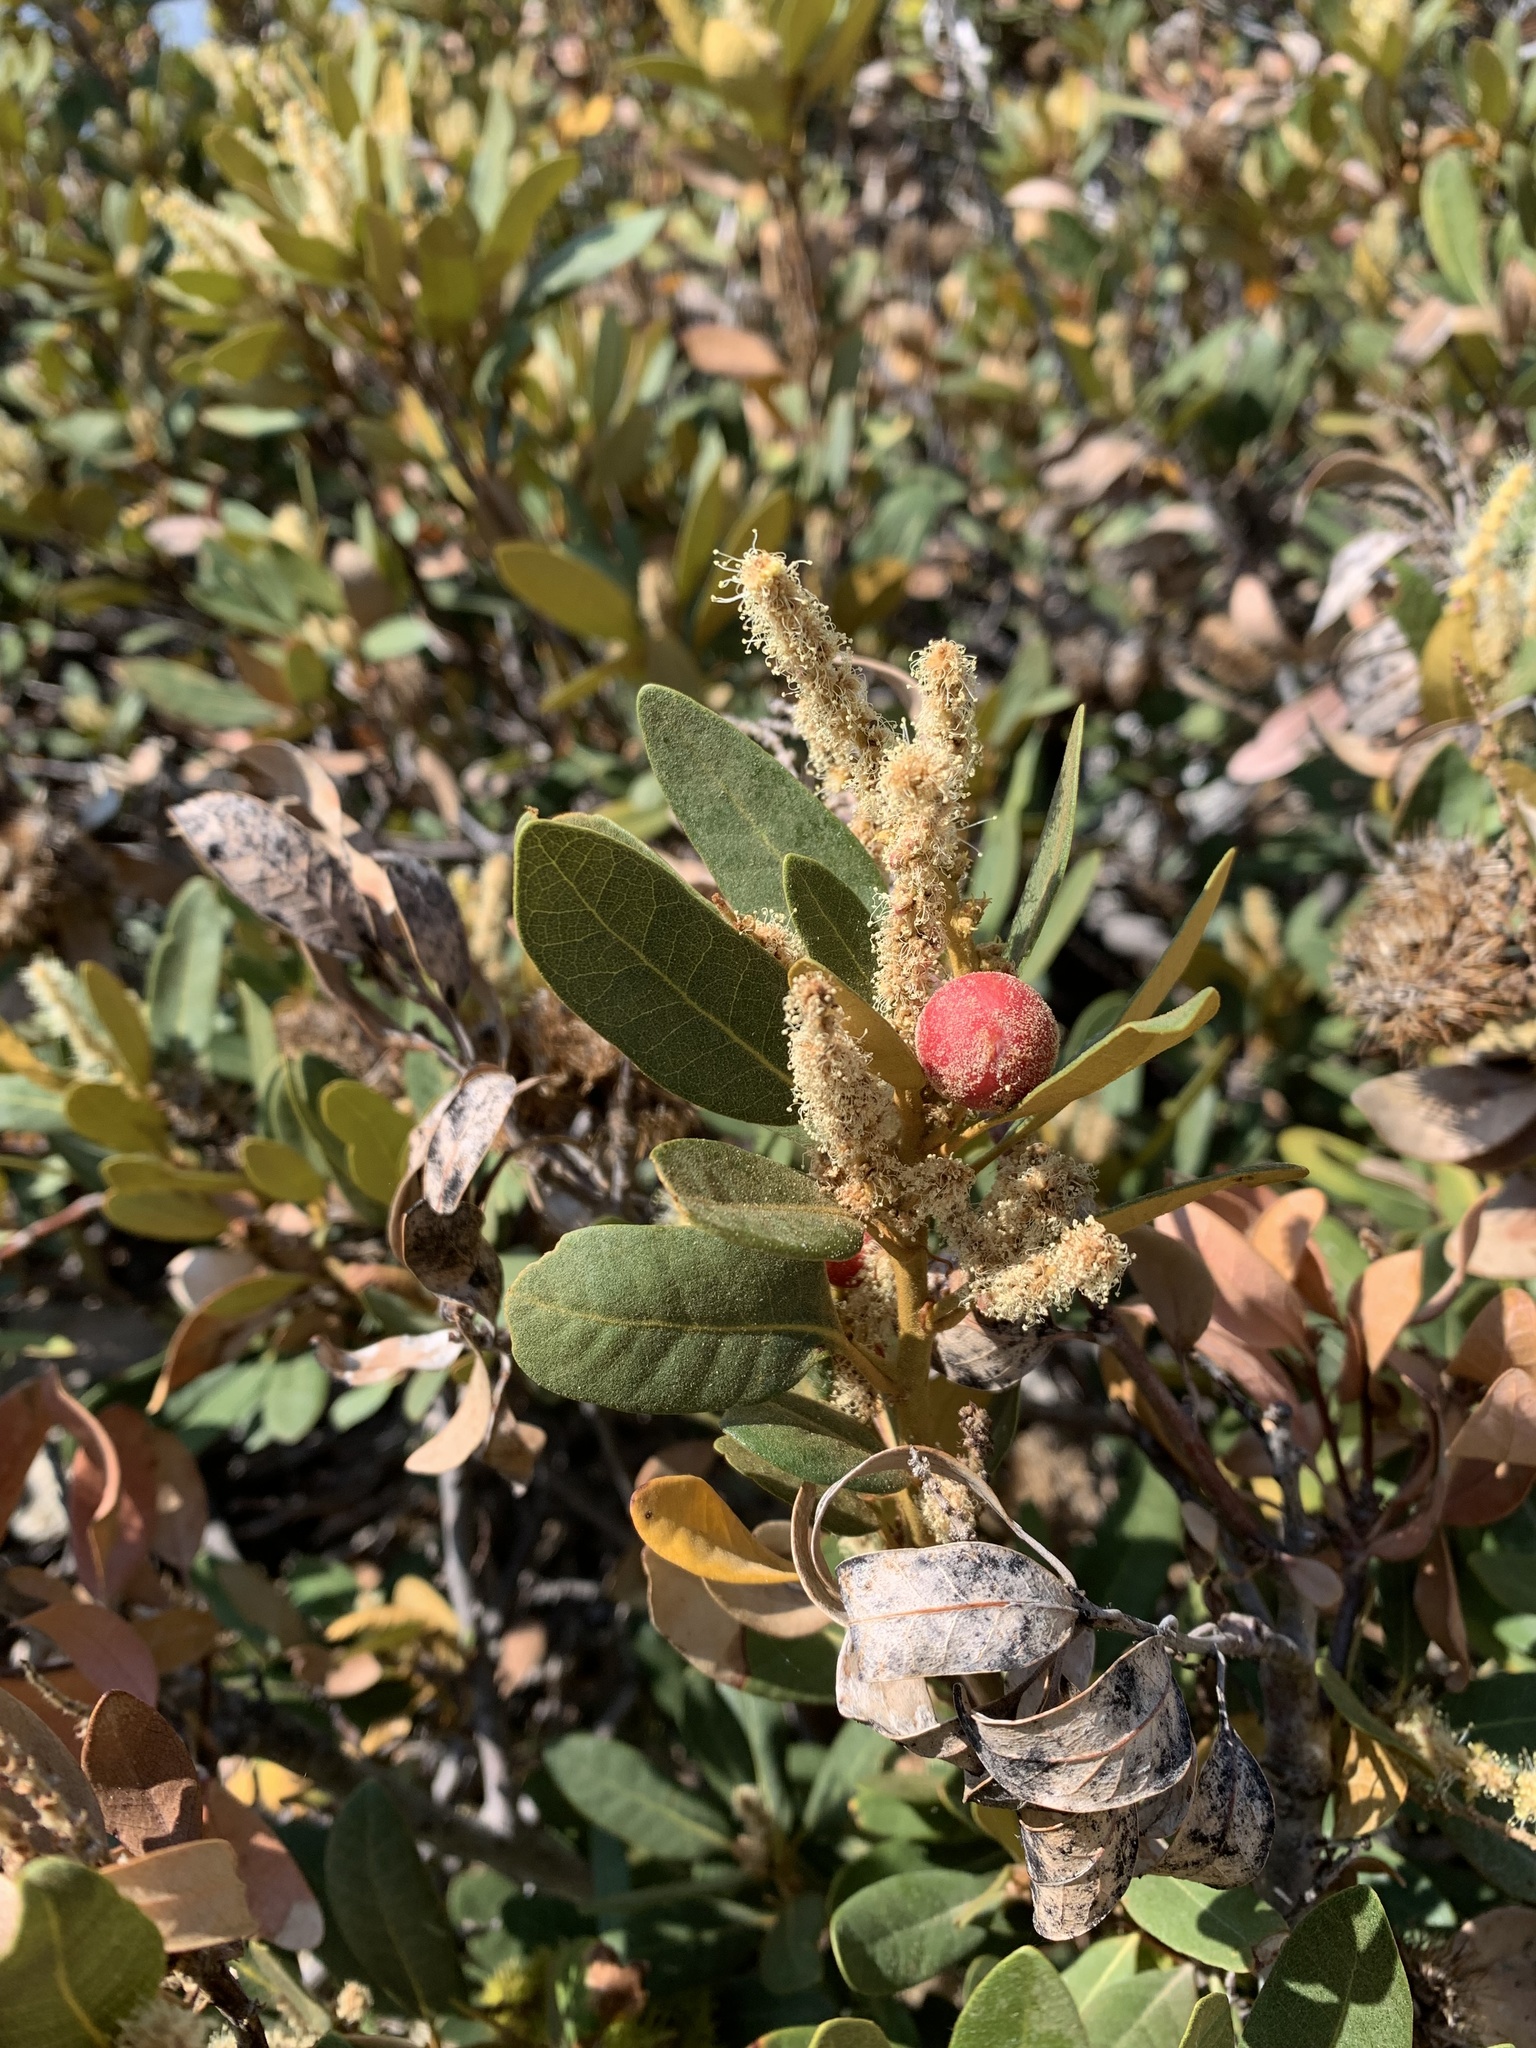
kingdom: Plantae
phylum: Tracheophyta
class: Magnoliopsida
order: Fagales
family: Fagaceae
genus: Chrysolepis
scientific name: Chrysolepis sempervirens
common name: Bush chinquapin
